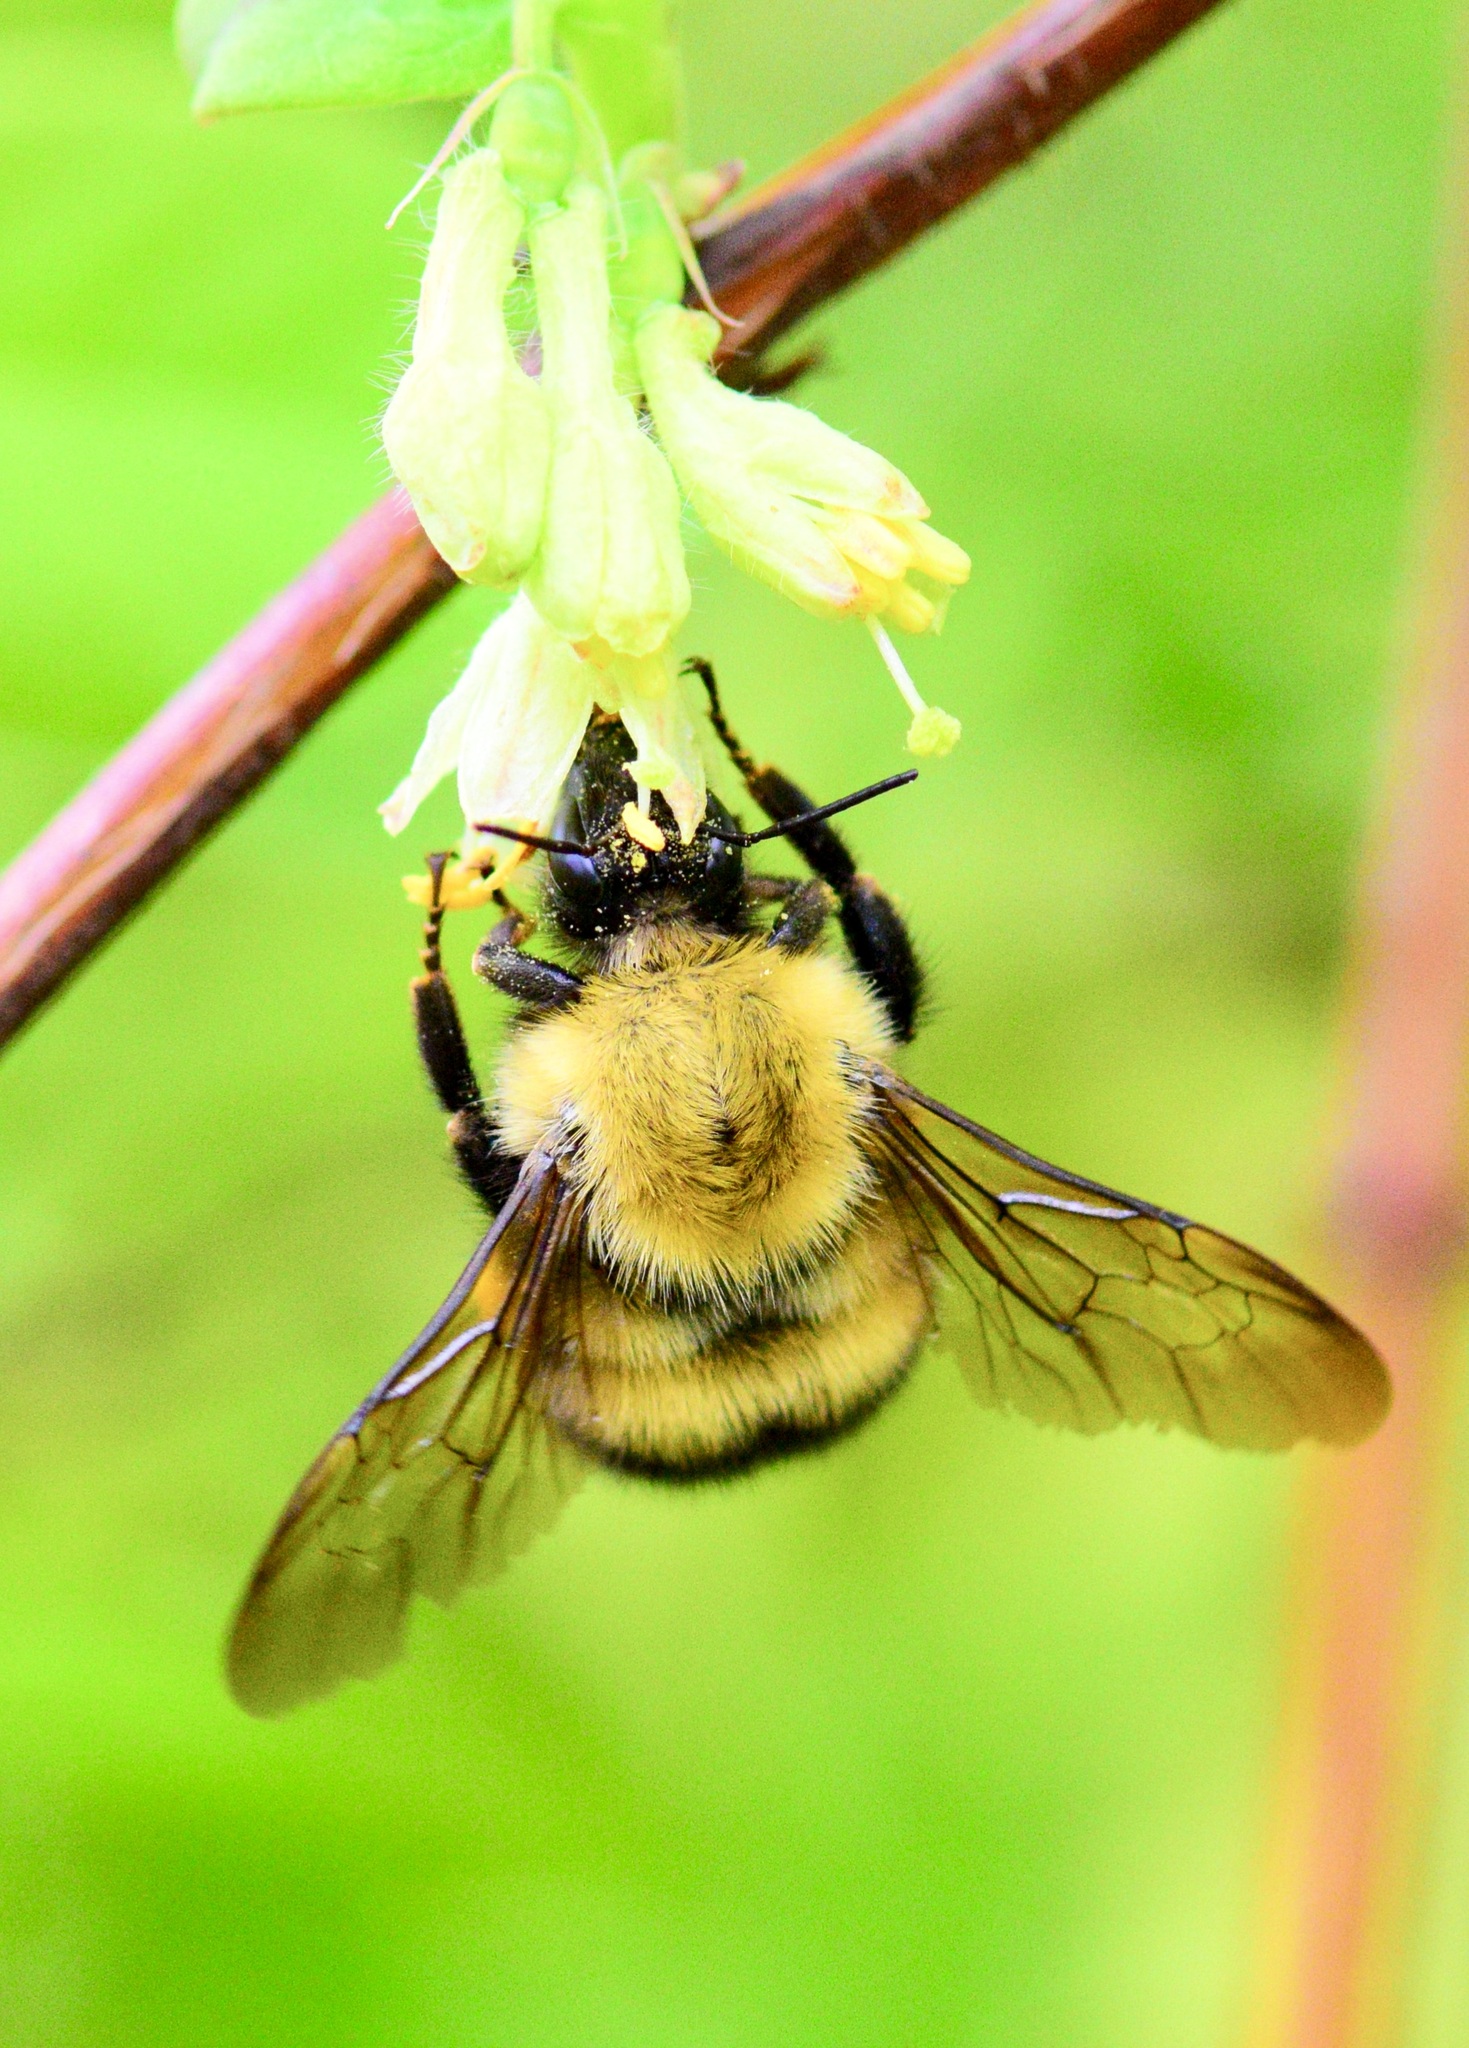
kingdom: Animalia
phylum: Arthropoda
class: Insecta
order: Hymenoptera
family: Apidae
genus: Bombus
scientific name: Bombus perplexus
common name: Confusing bumble bee
